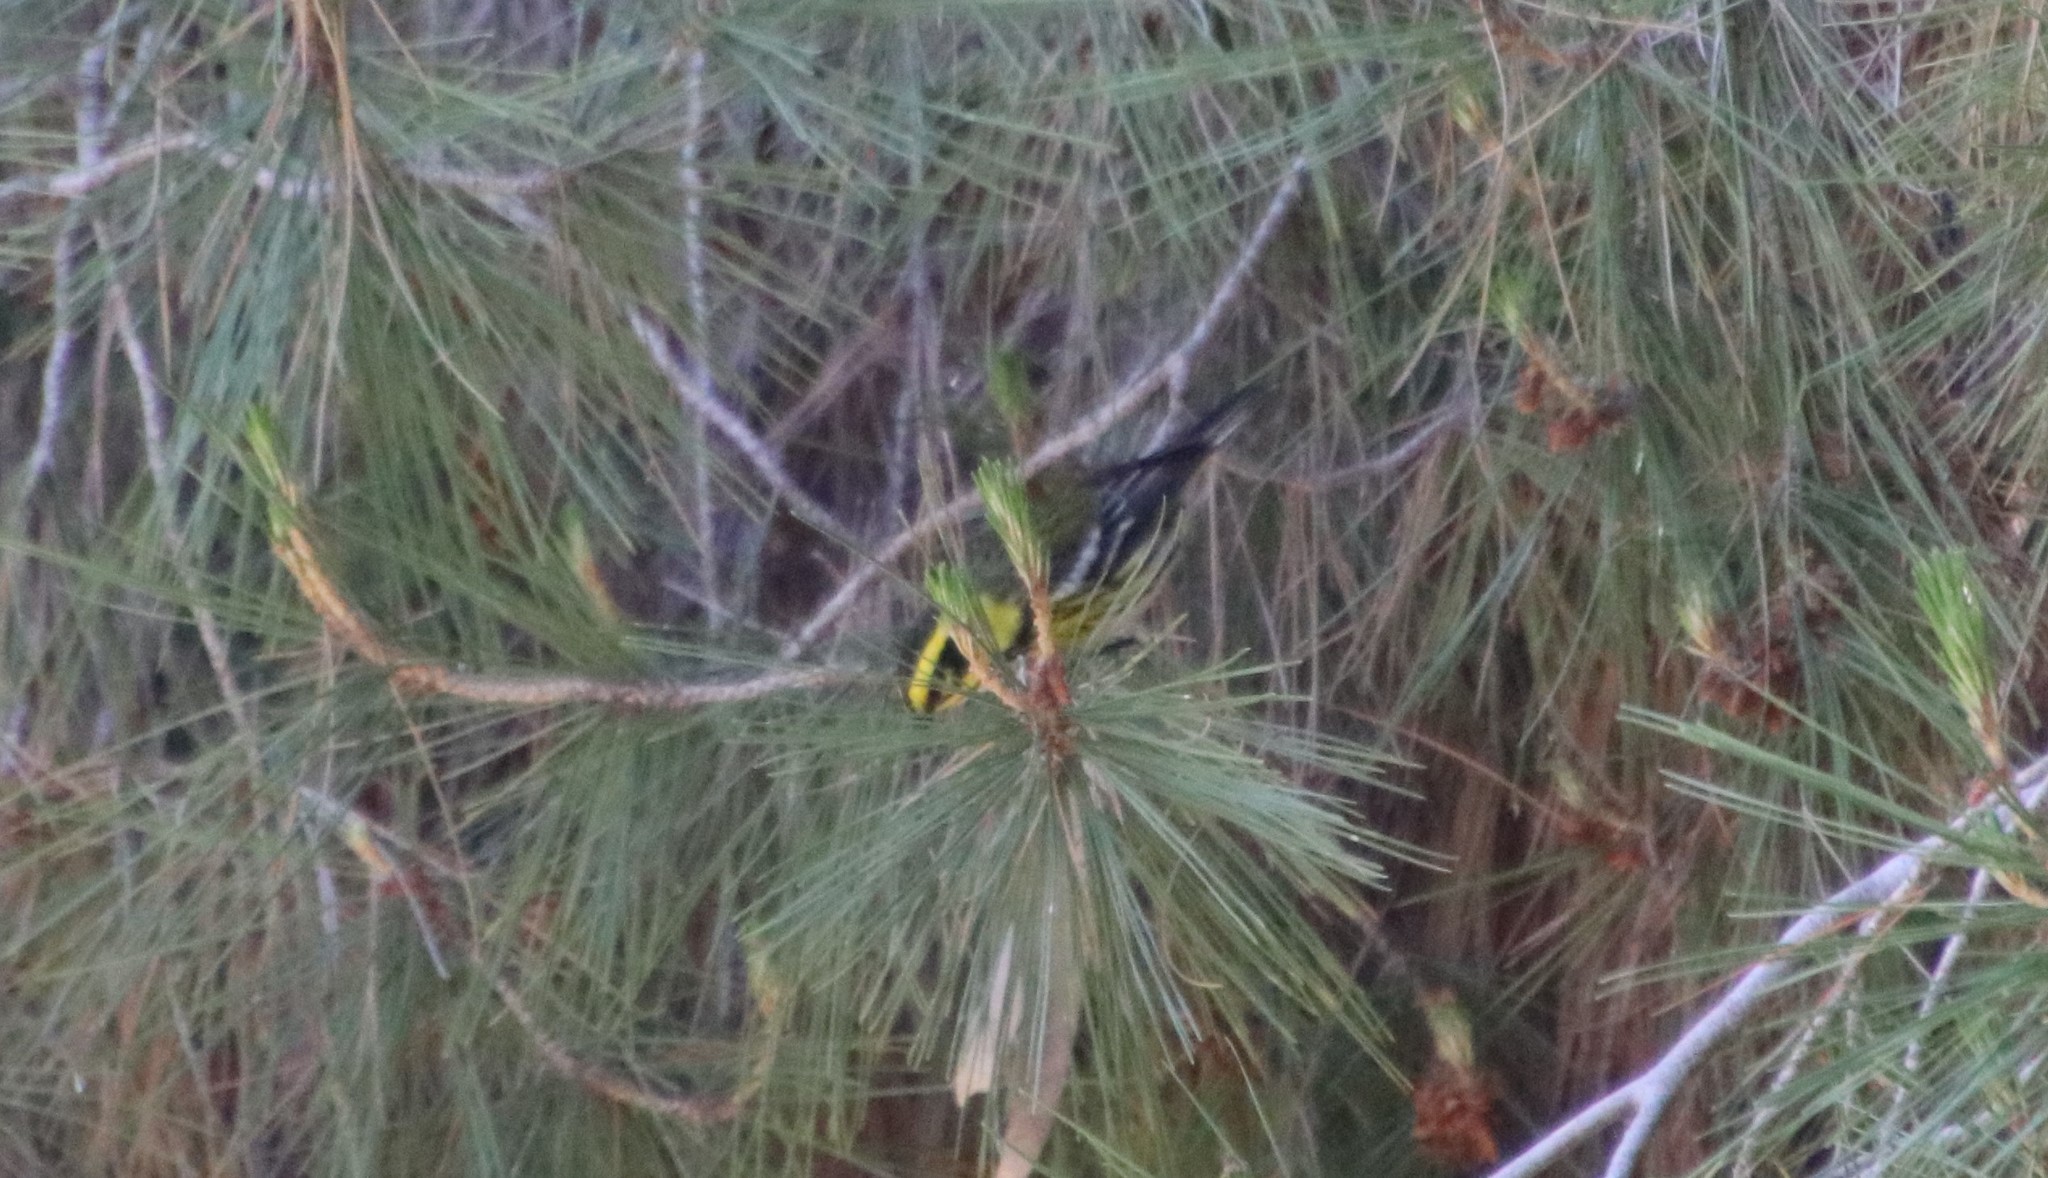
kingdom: Animalia
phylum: Chordata
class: Aves
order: Passeriformes
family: Parulidae
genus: Setophaga
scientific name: Setophaga townsendi
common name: Townsend's warbler
